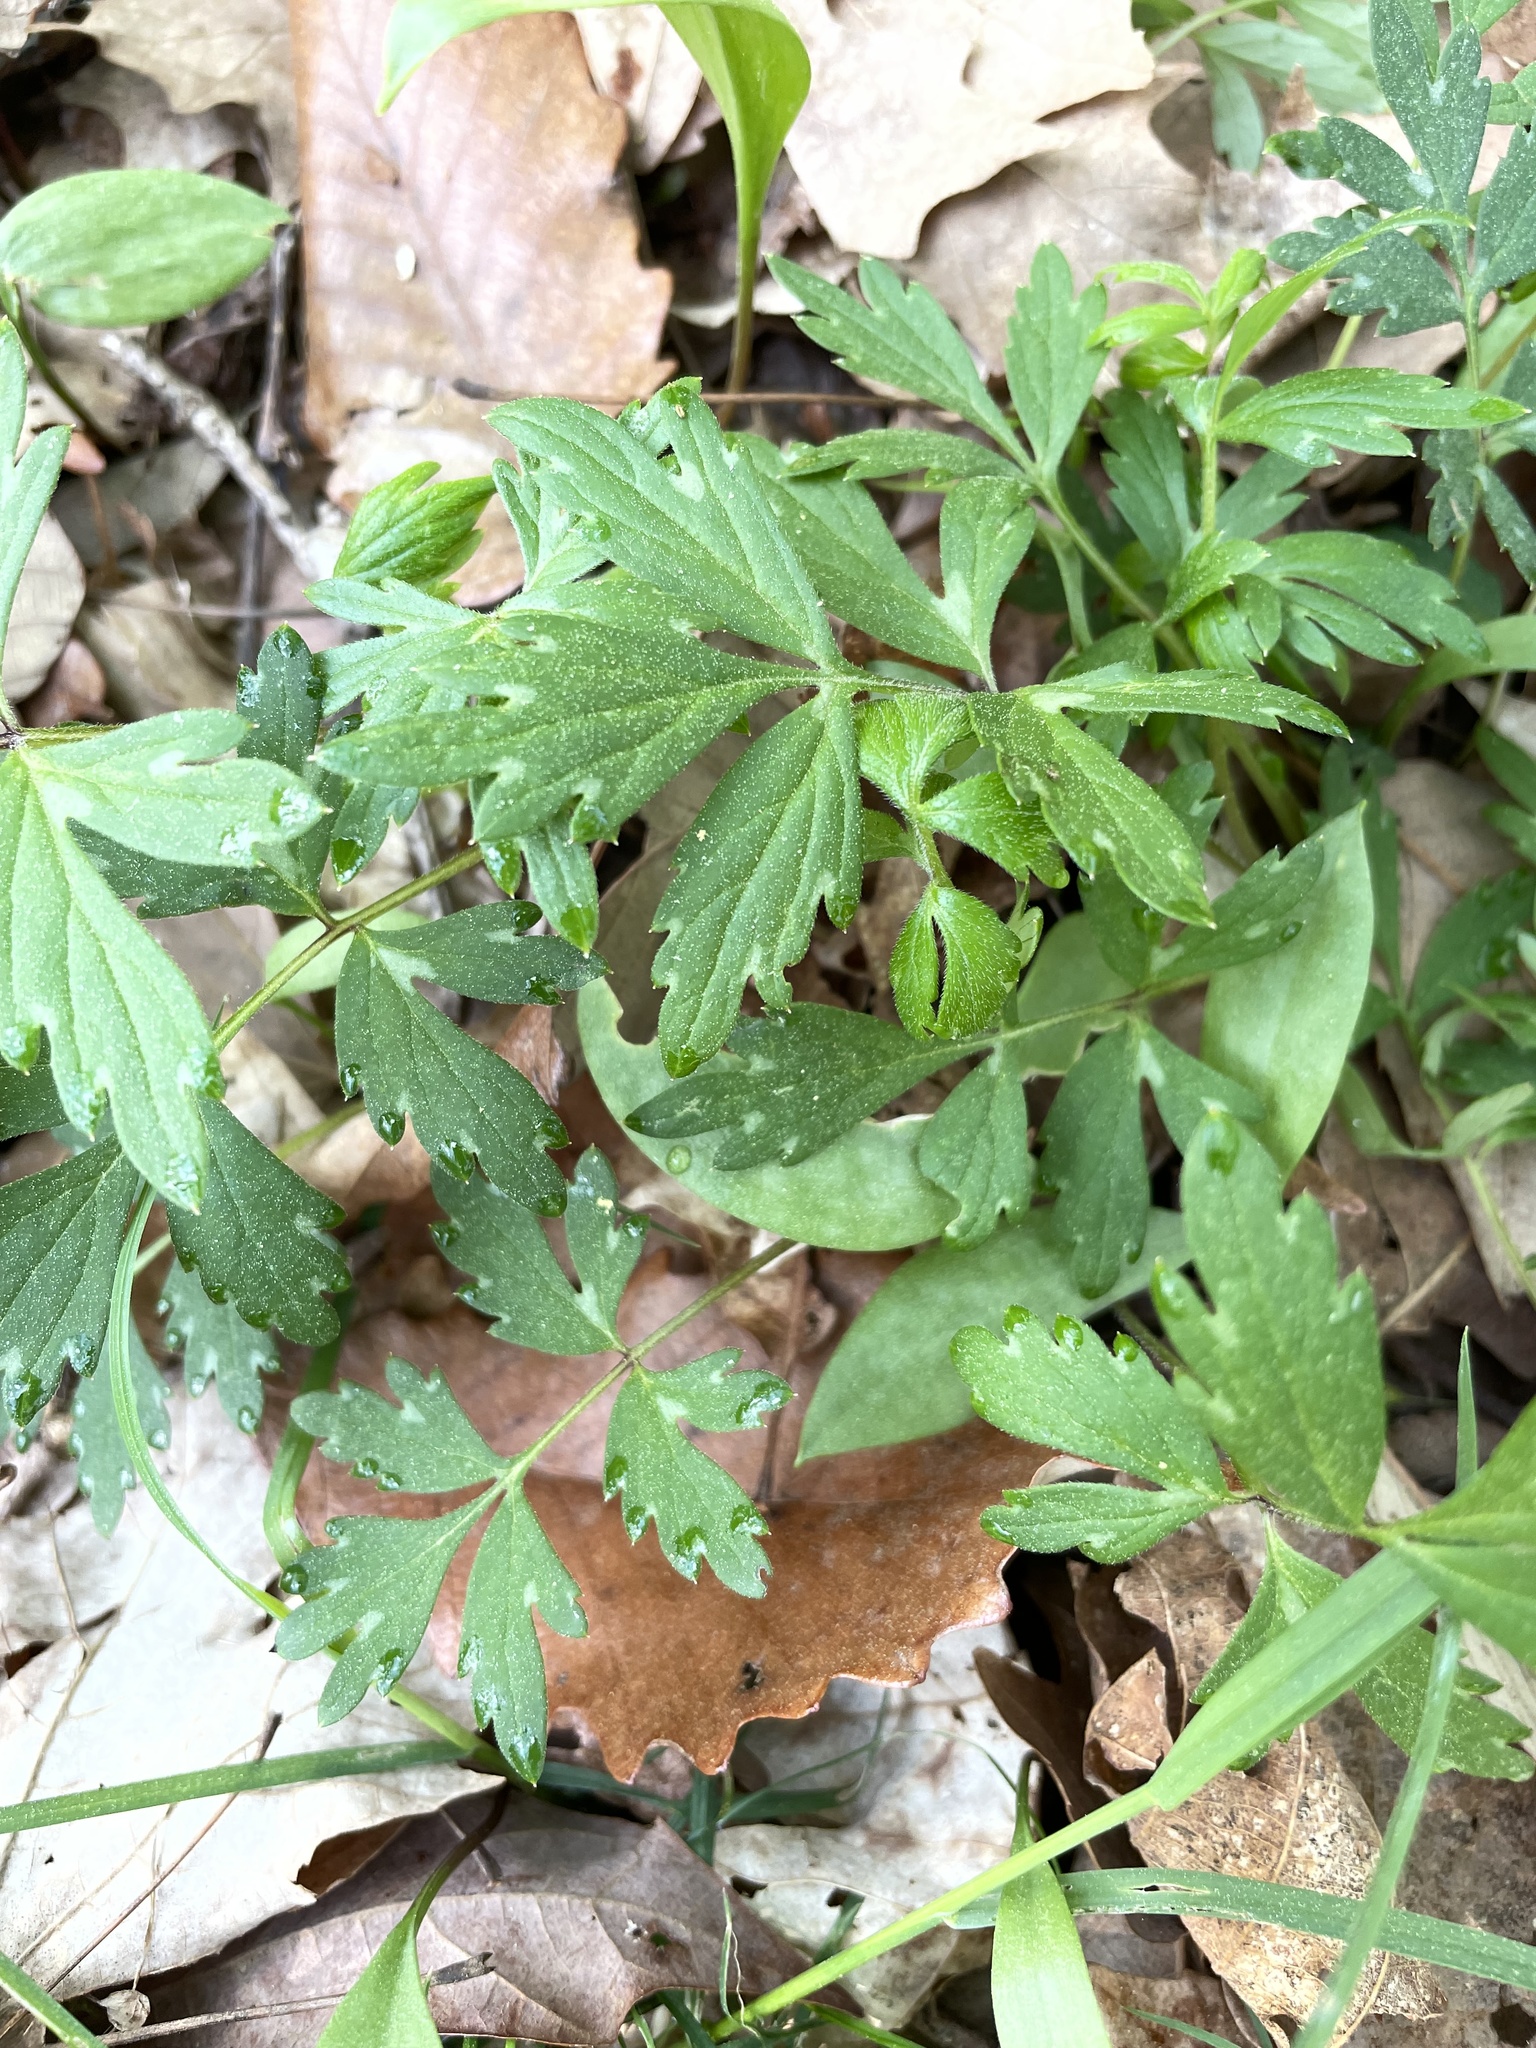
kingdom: Plantae
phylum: Tracheophyta
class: Magnoliopsida
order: Boraginales
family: Hydrophyllaceae
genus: Hydrophyllum
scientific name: Hydrophyllum virginianum
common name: Virginia waterleaf
